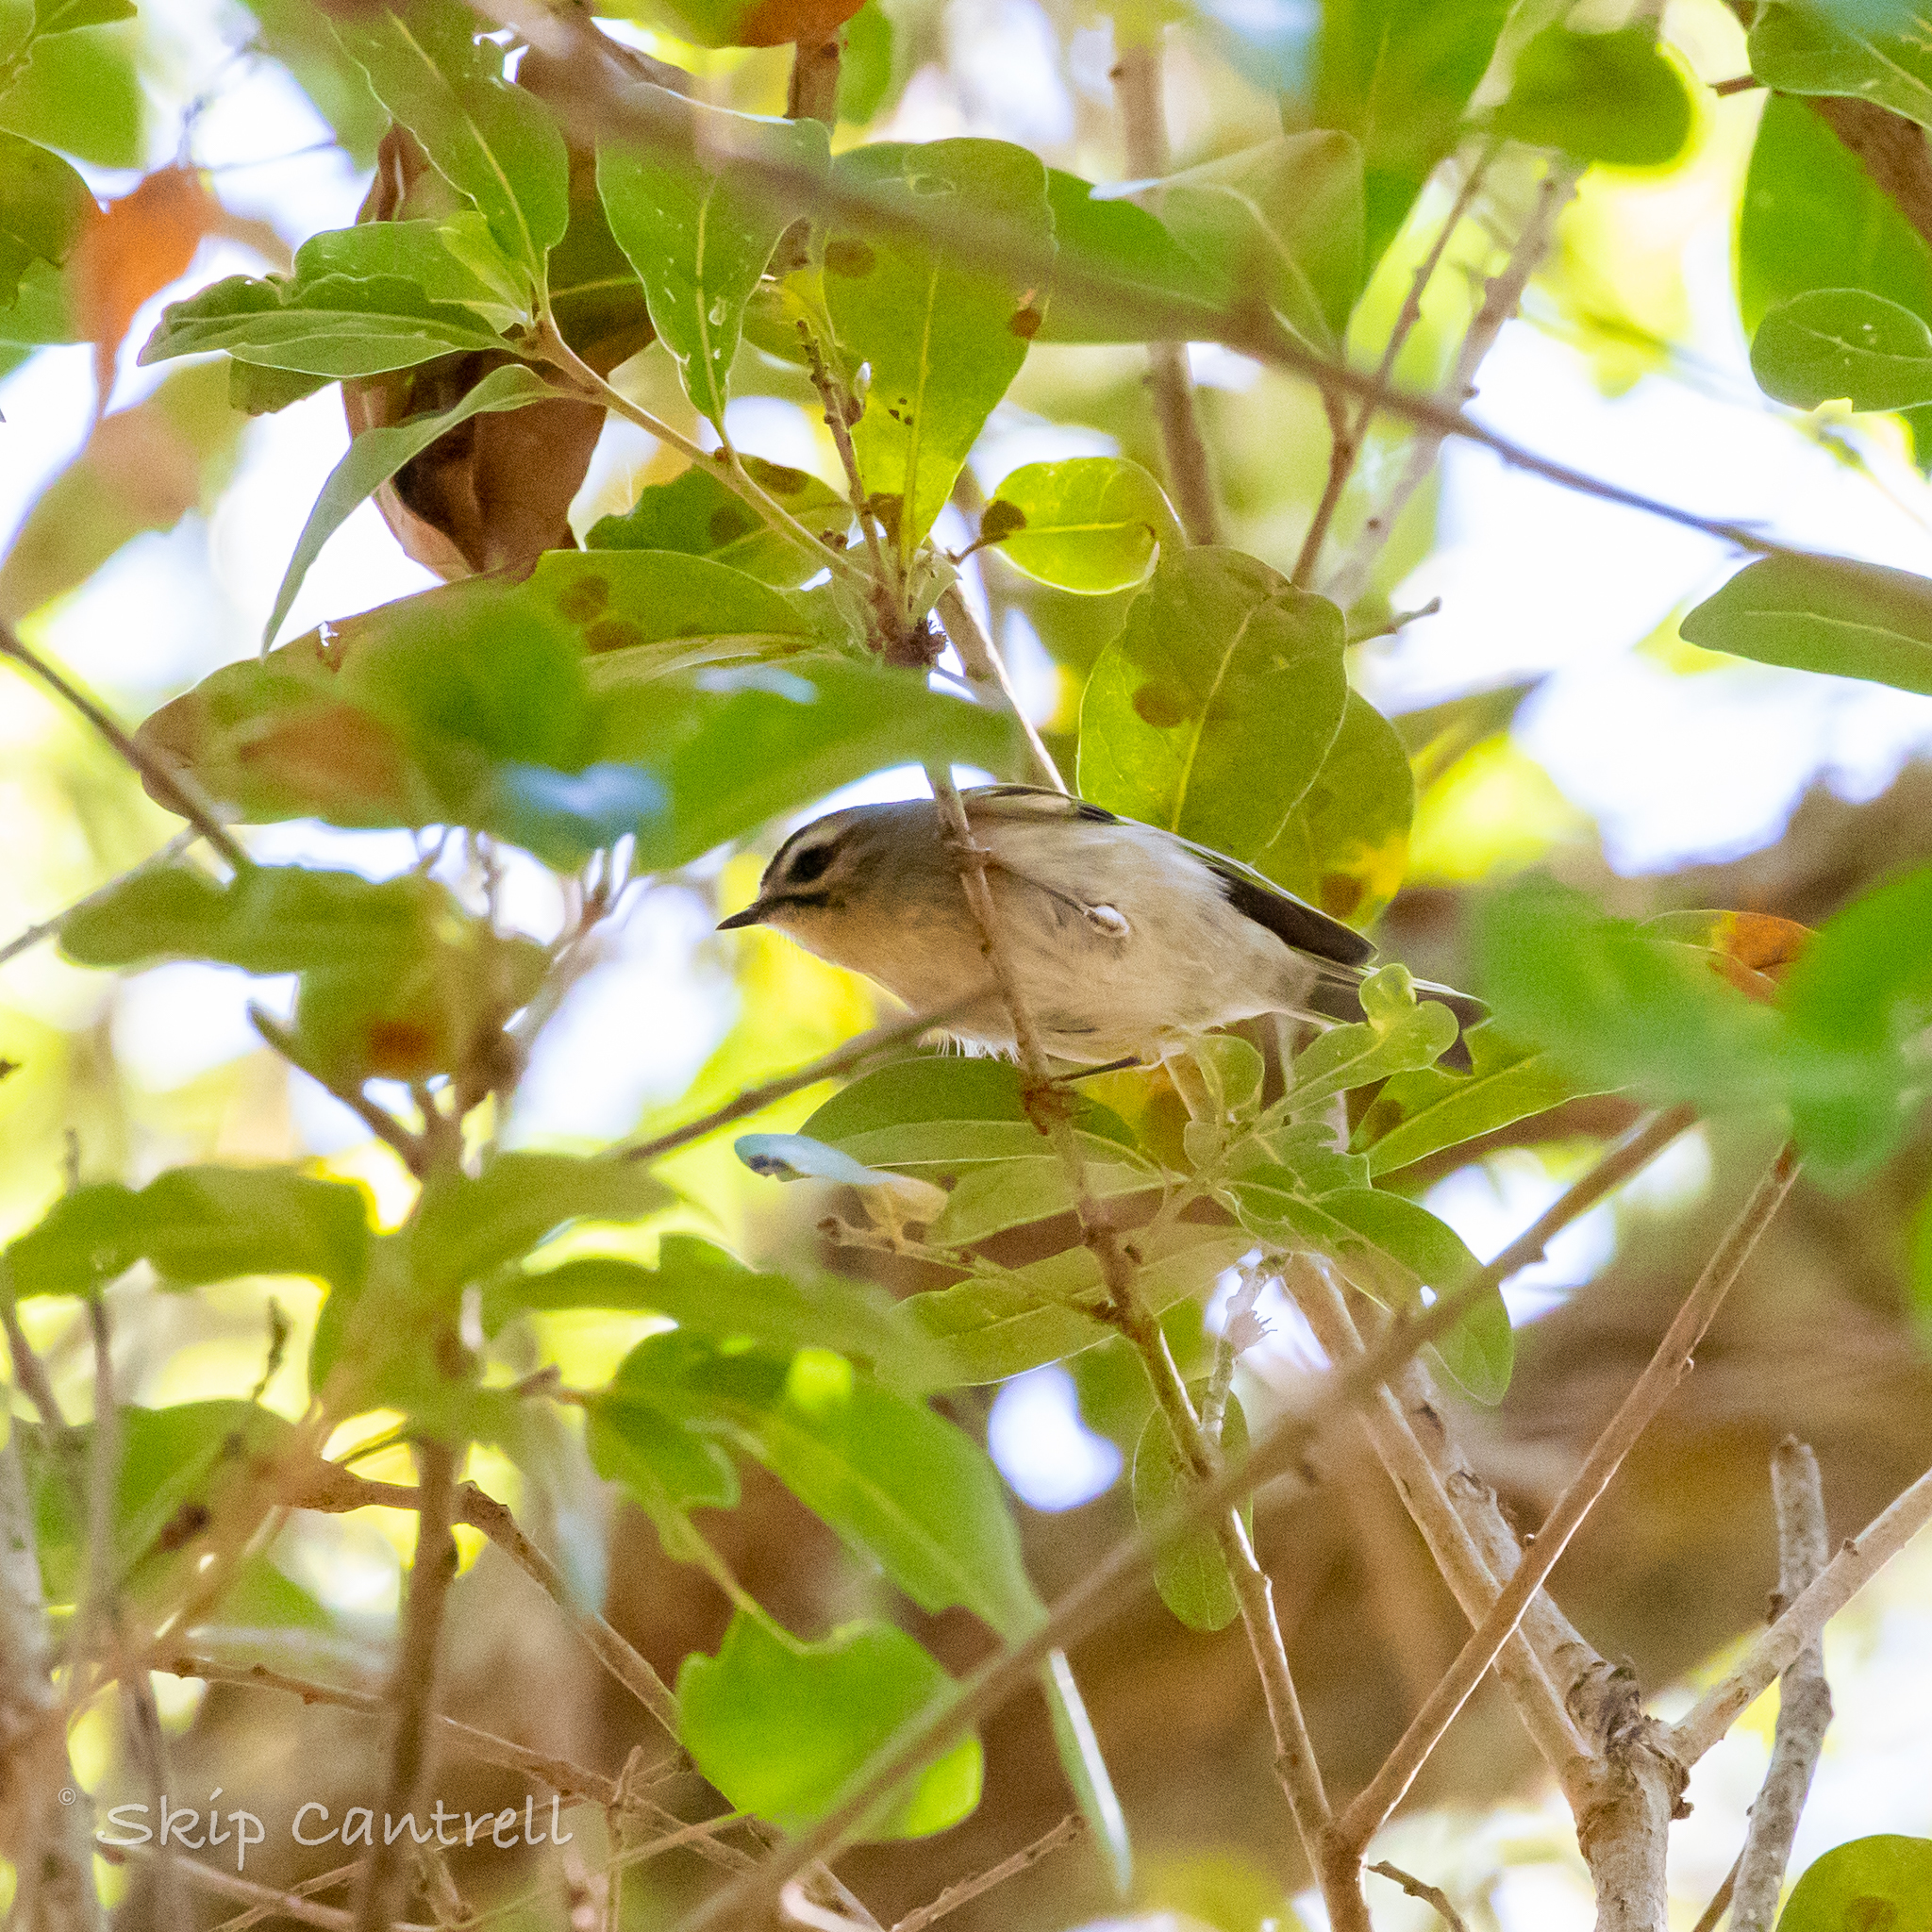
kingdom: Animalia
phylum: Chordata
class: Aves
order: Passeriformes
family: Regulidae
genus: Regulus
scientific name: Regulus satrapa
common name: Golden-crowned kinglet
